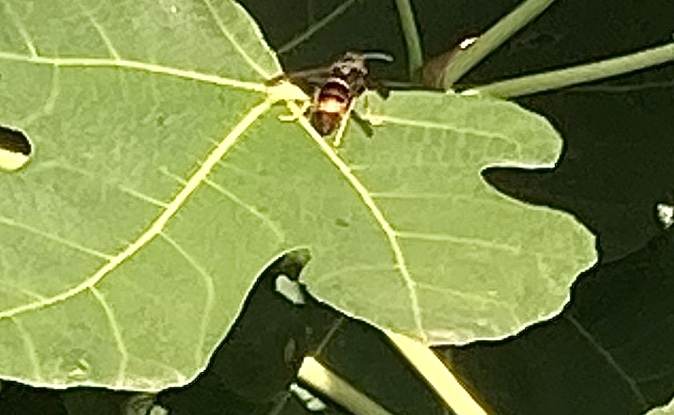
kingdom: Animalia
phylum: Arthropoda
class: Insecta
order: Hymenoptera
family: Vespidae
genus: Vespa
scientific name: Vespa velutina
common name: Asian hornet
